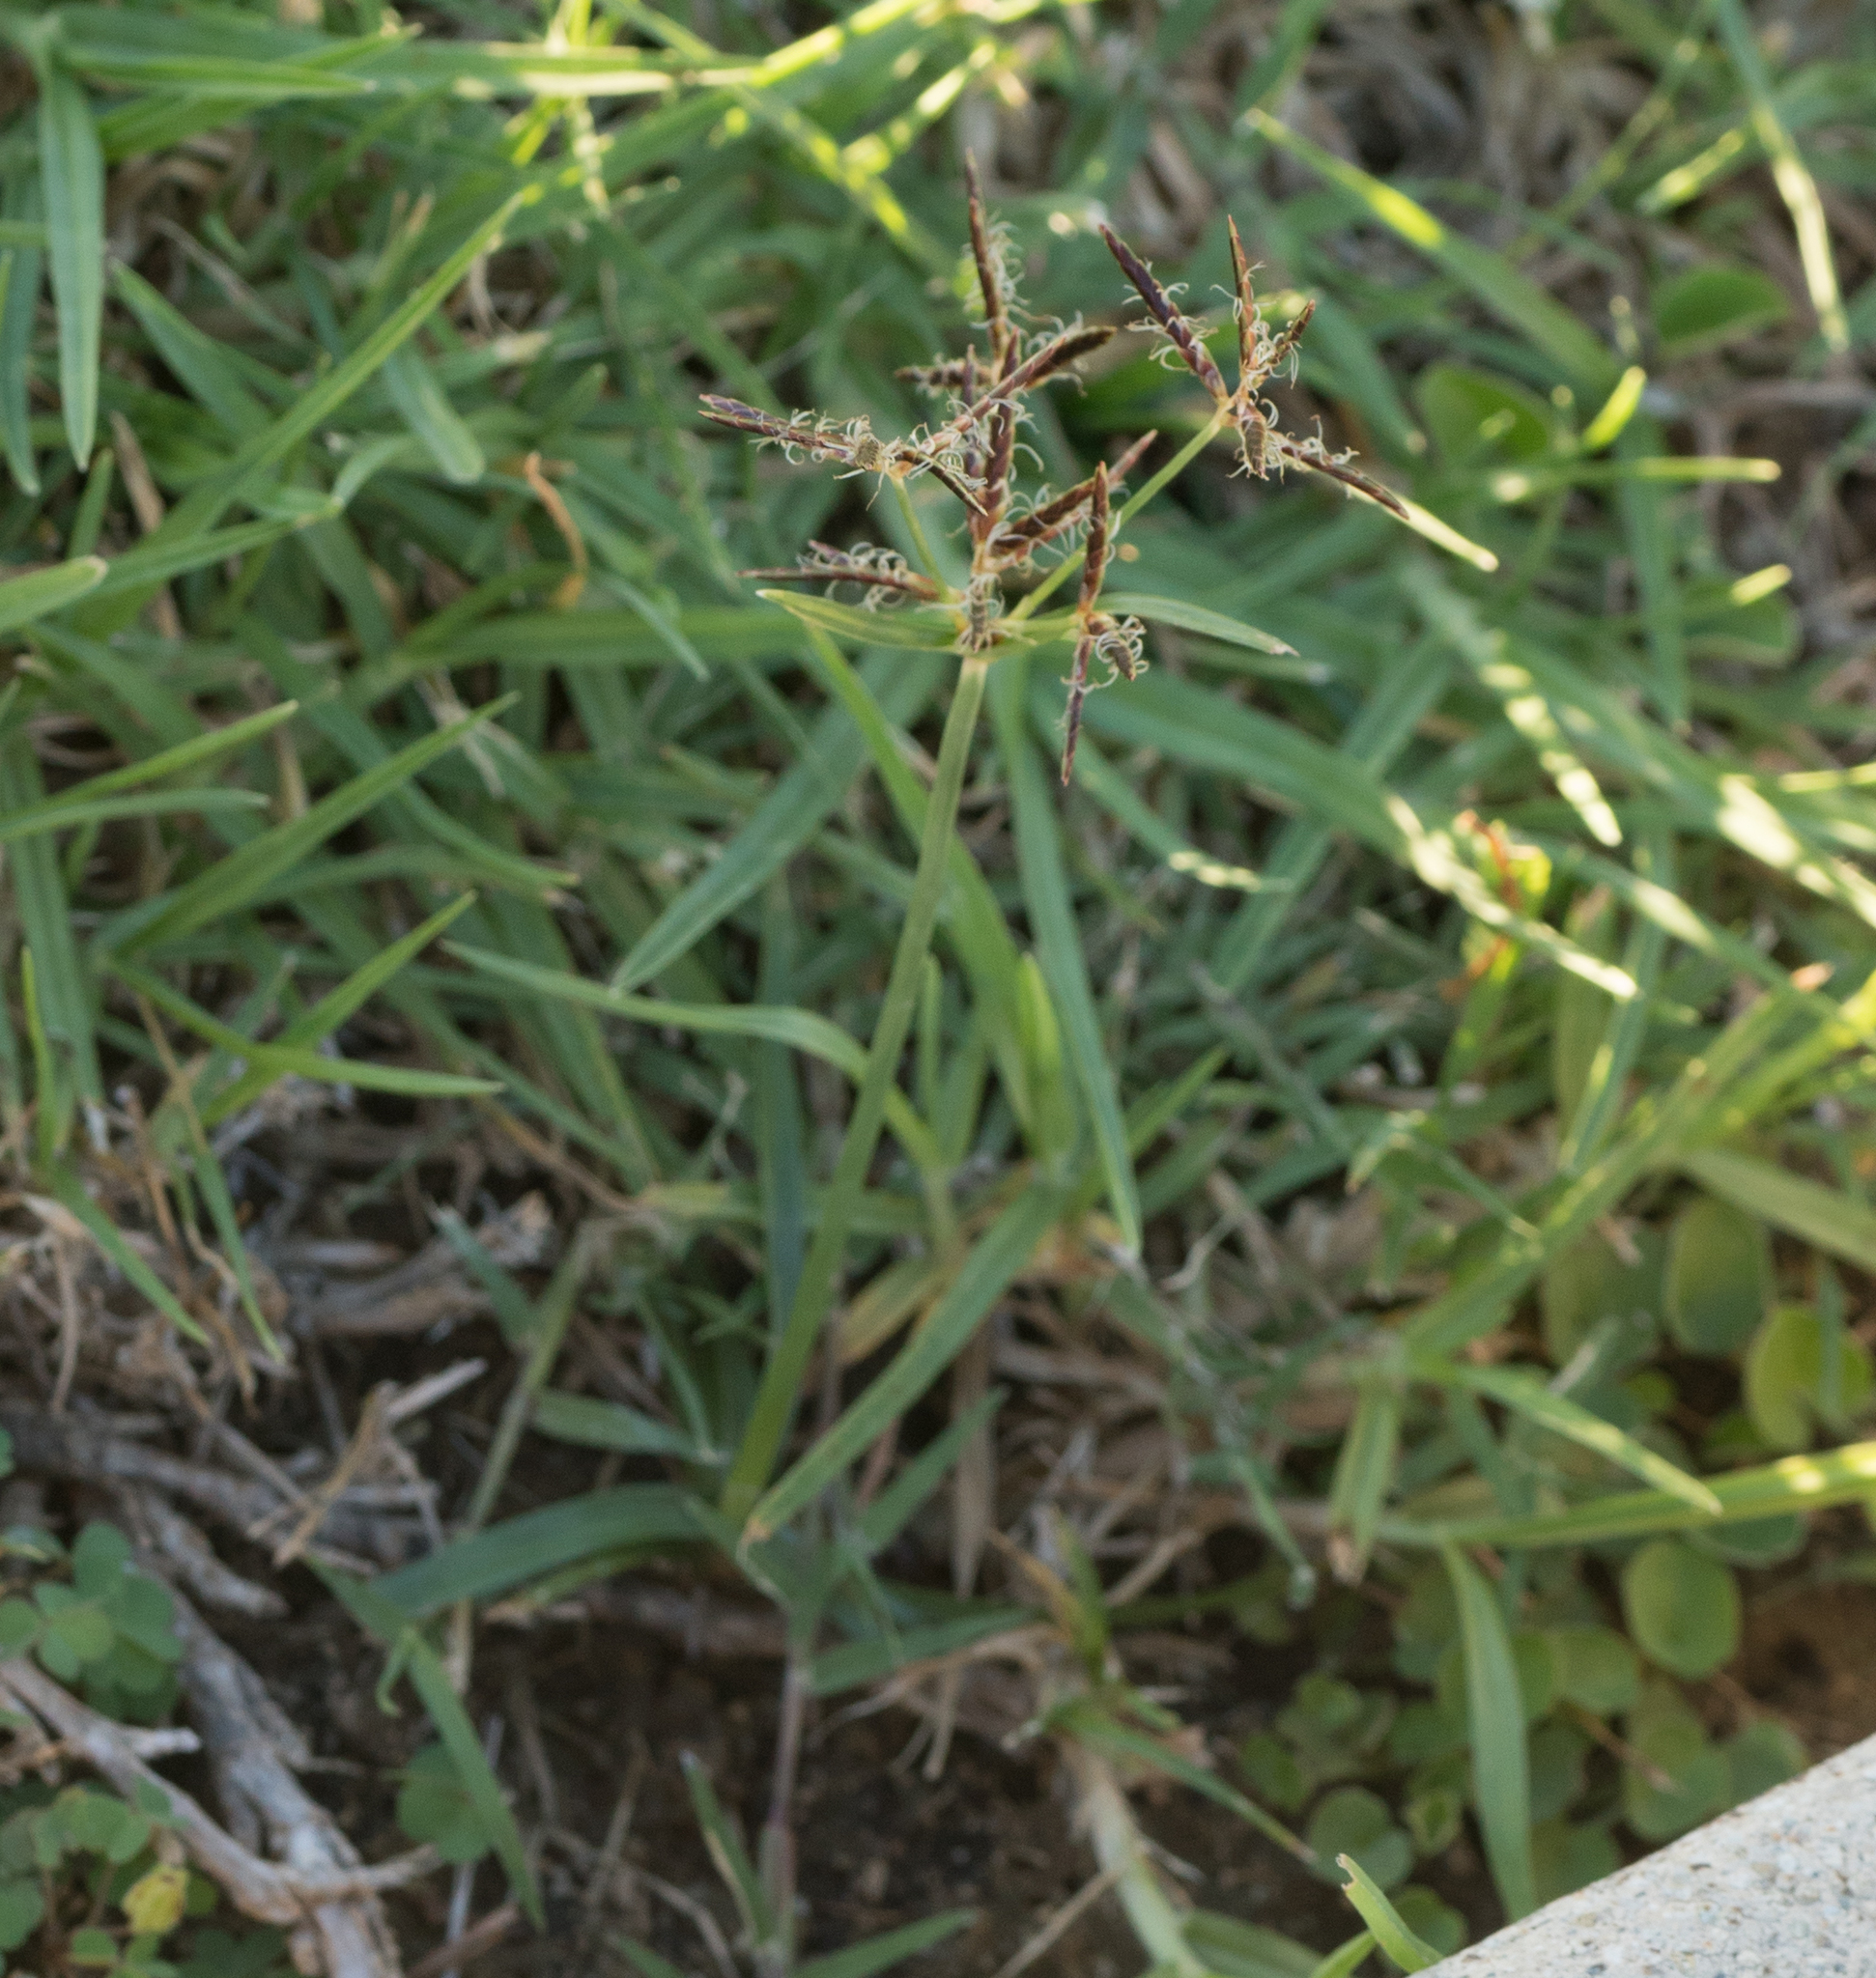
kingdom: Plantae
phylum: Tracheophyta
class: Liliopsida
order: Poales
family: Cyperaceae
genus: Cyperus
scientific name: Cyperus rotundus
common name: Nutgrass
